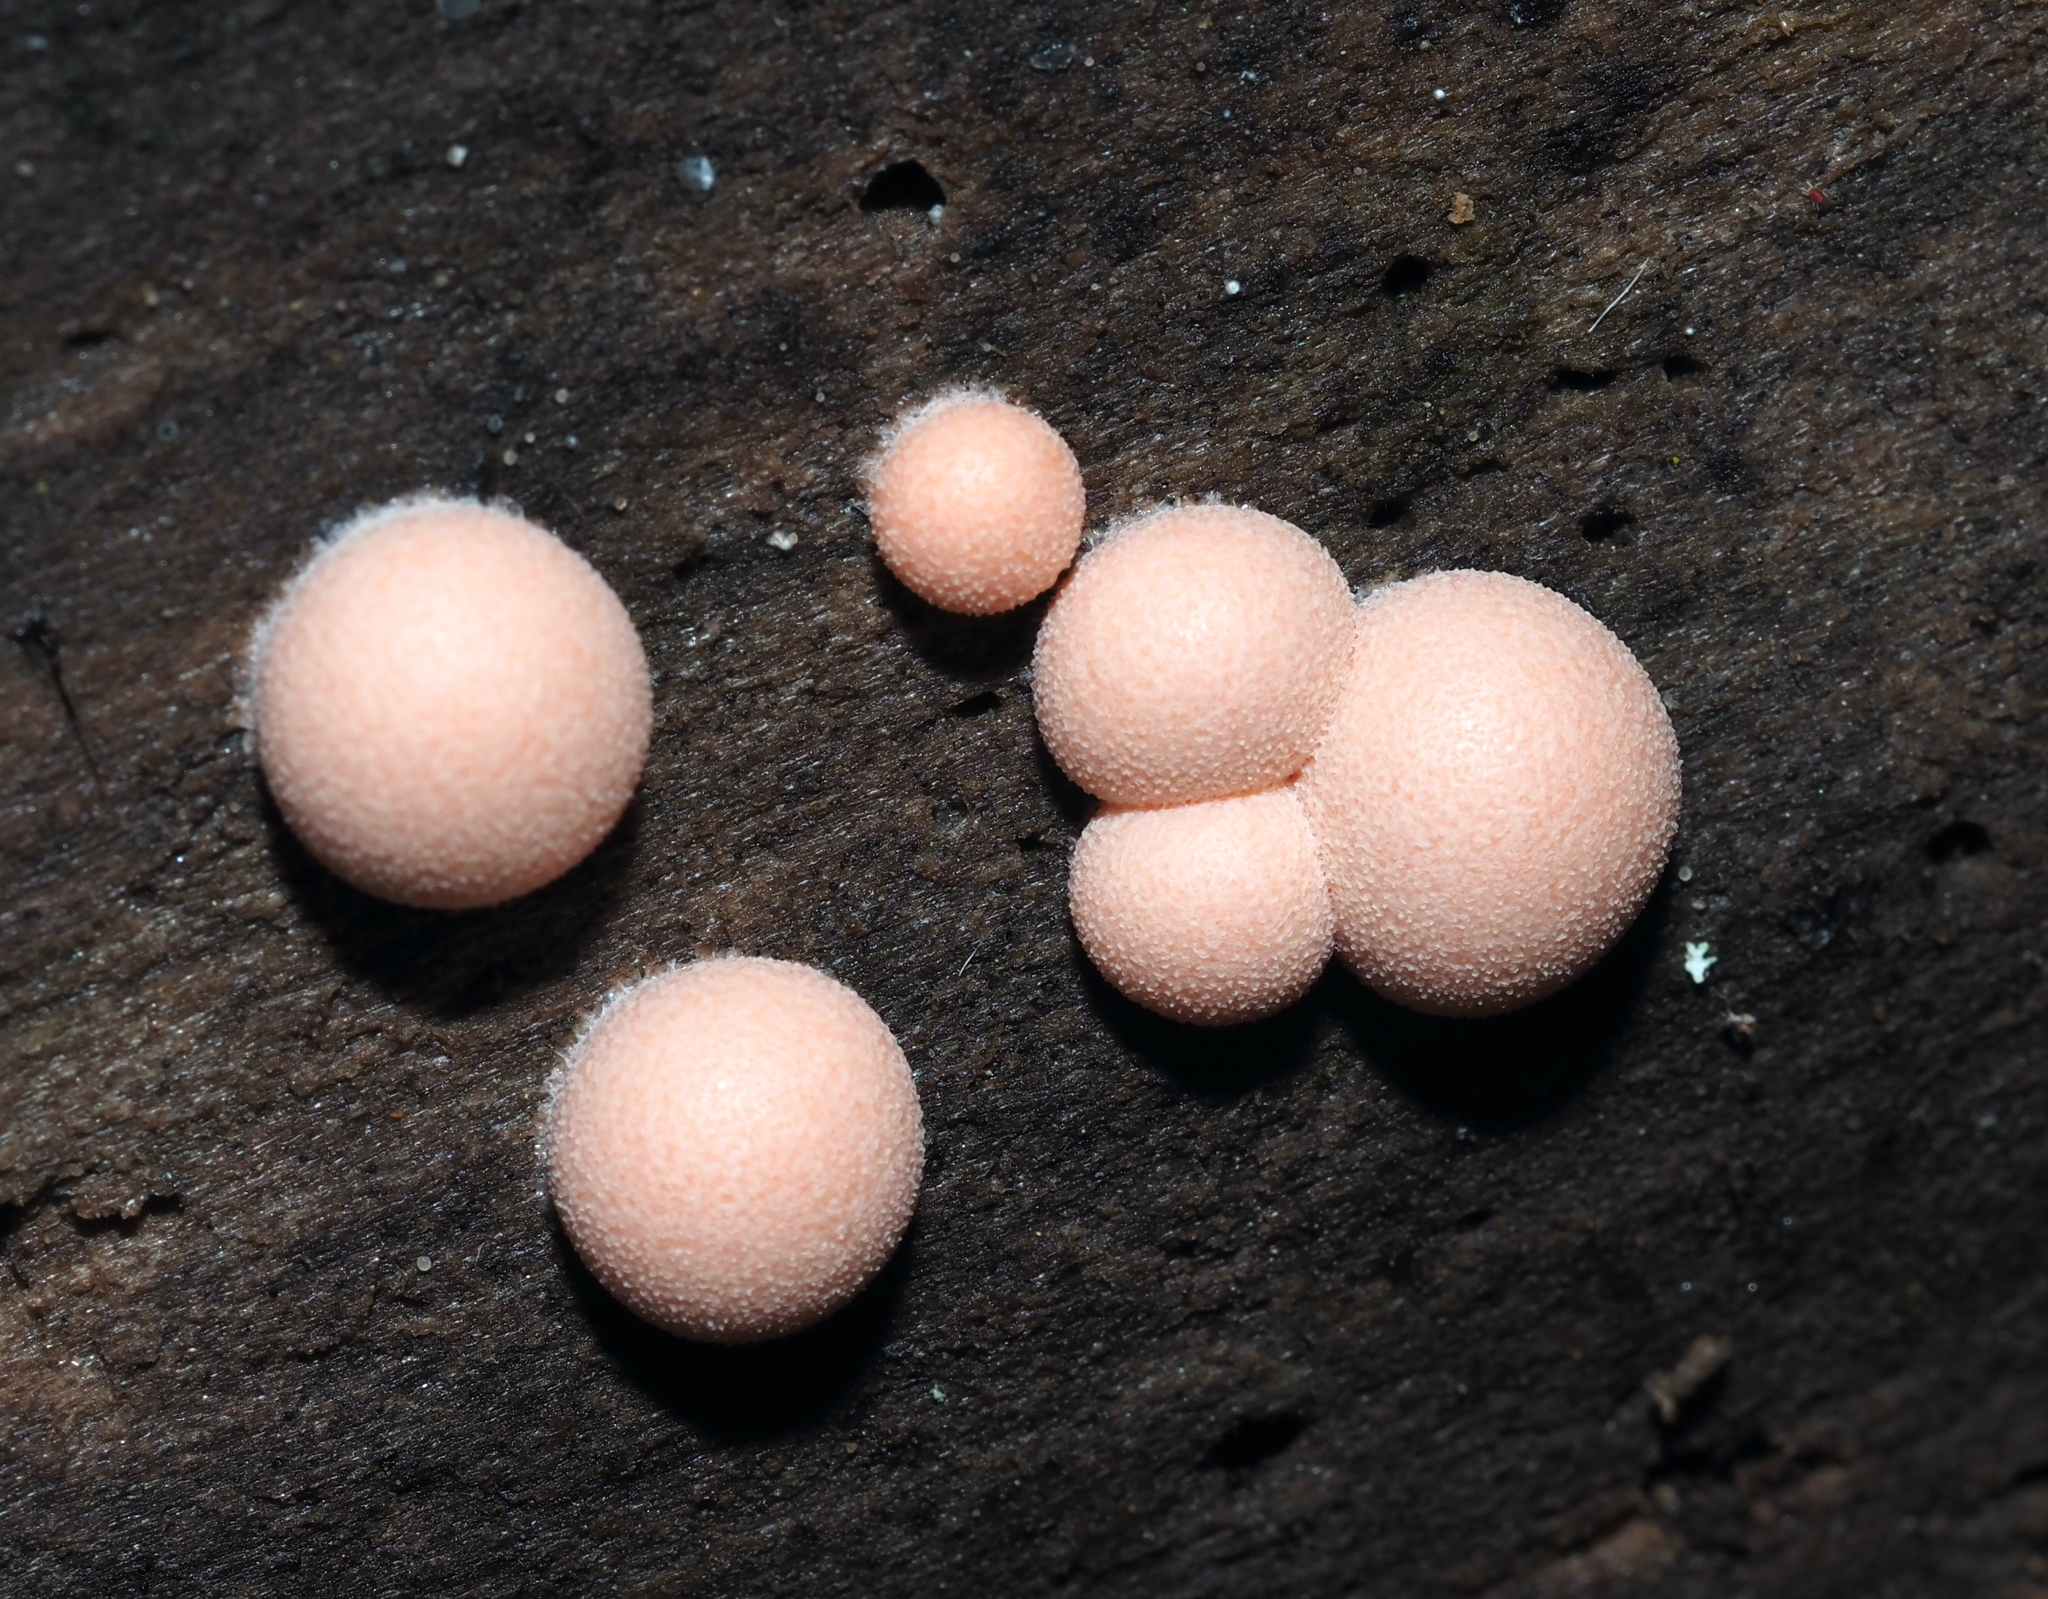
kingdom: Protozoa
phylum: Mycetozoa
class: Myxomycetes
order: Cribrariales
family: Tubiferaceae
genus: Lycogala
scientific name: Lycogala epidendrum
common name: Wolf's milk
